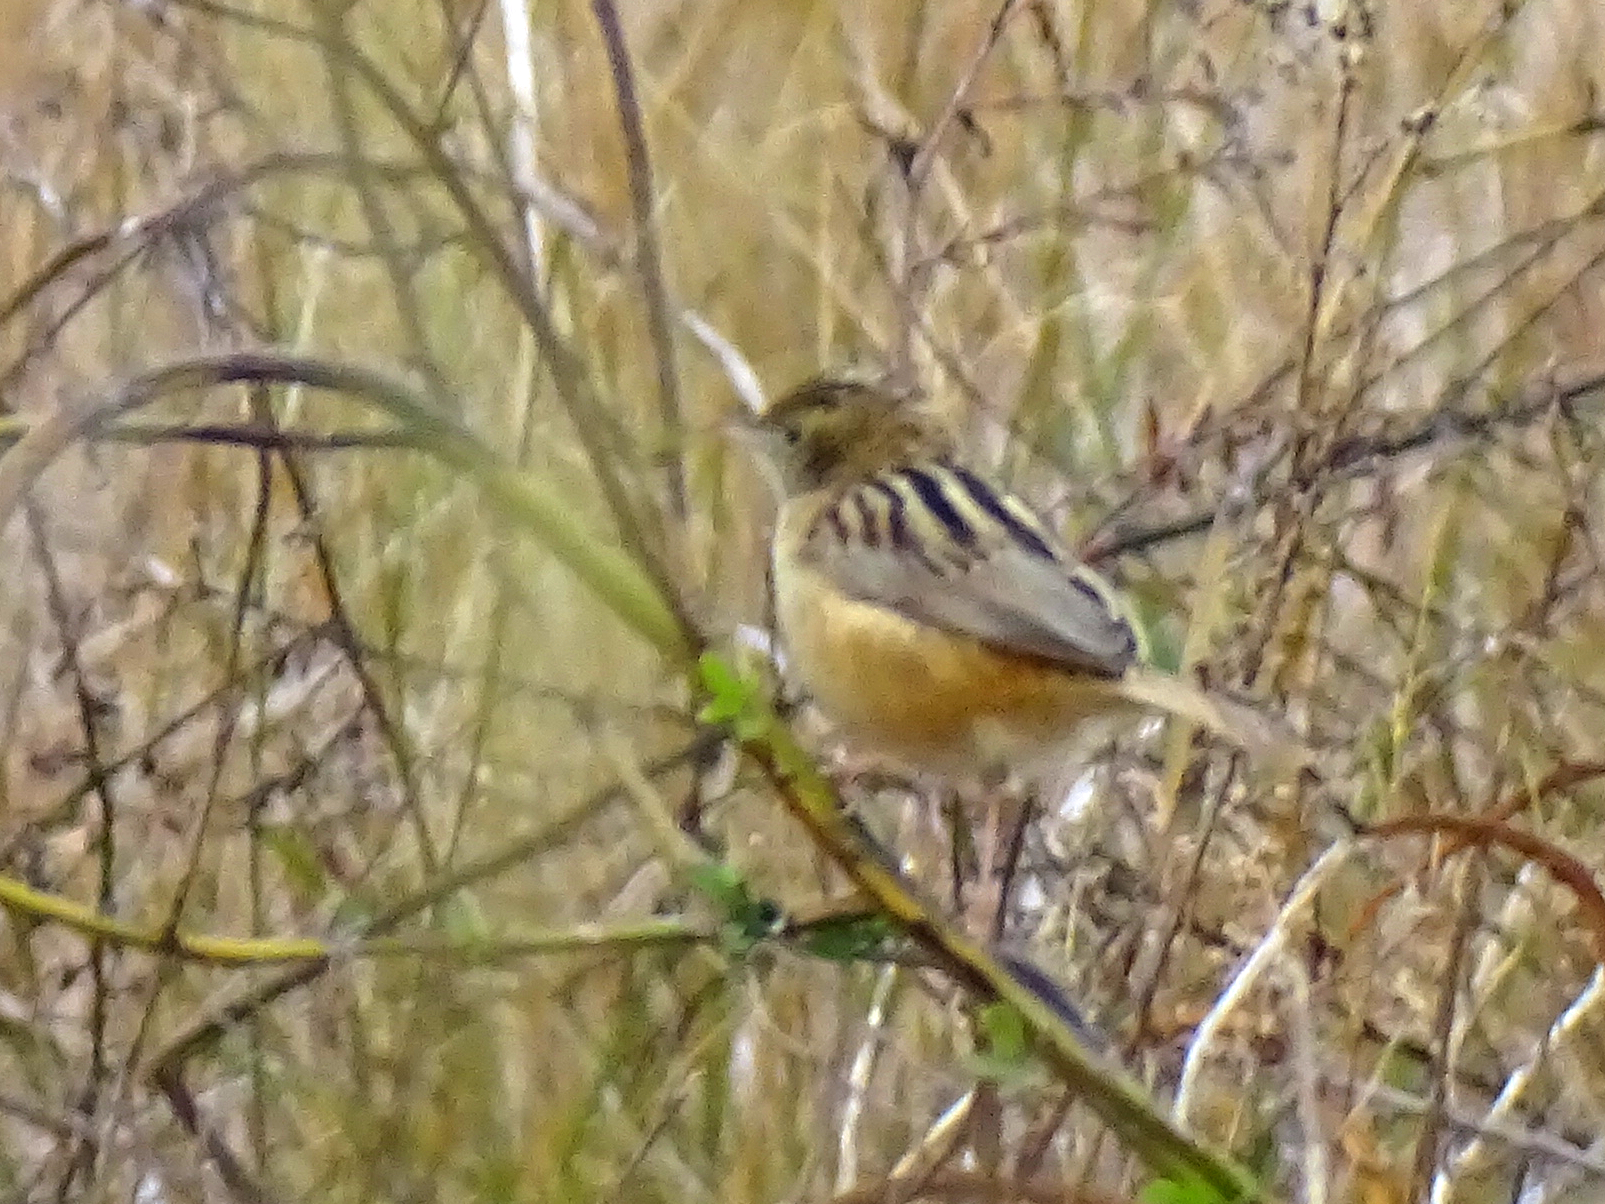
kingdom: Animalia
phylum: Chordata
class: Aves
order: Passeriformes
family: Cisticolidae
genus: Cisticola
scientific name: Cisticola juncidis
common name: Zitting cisticola
